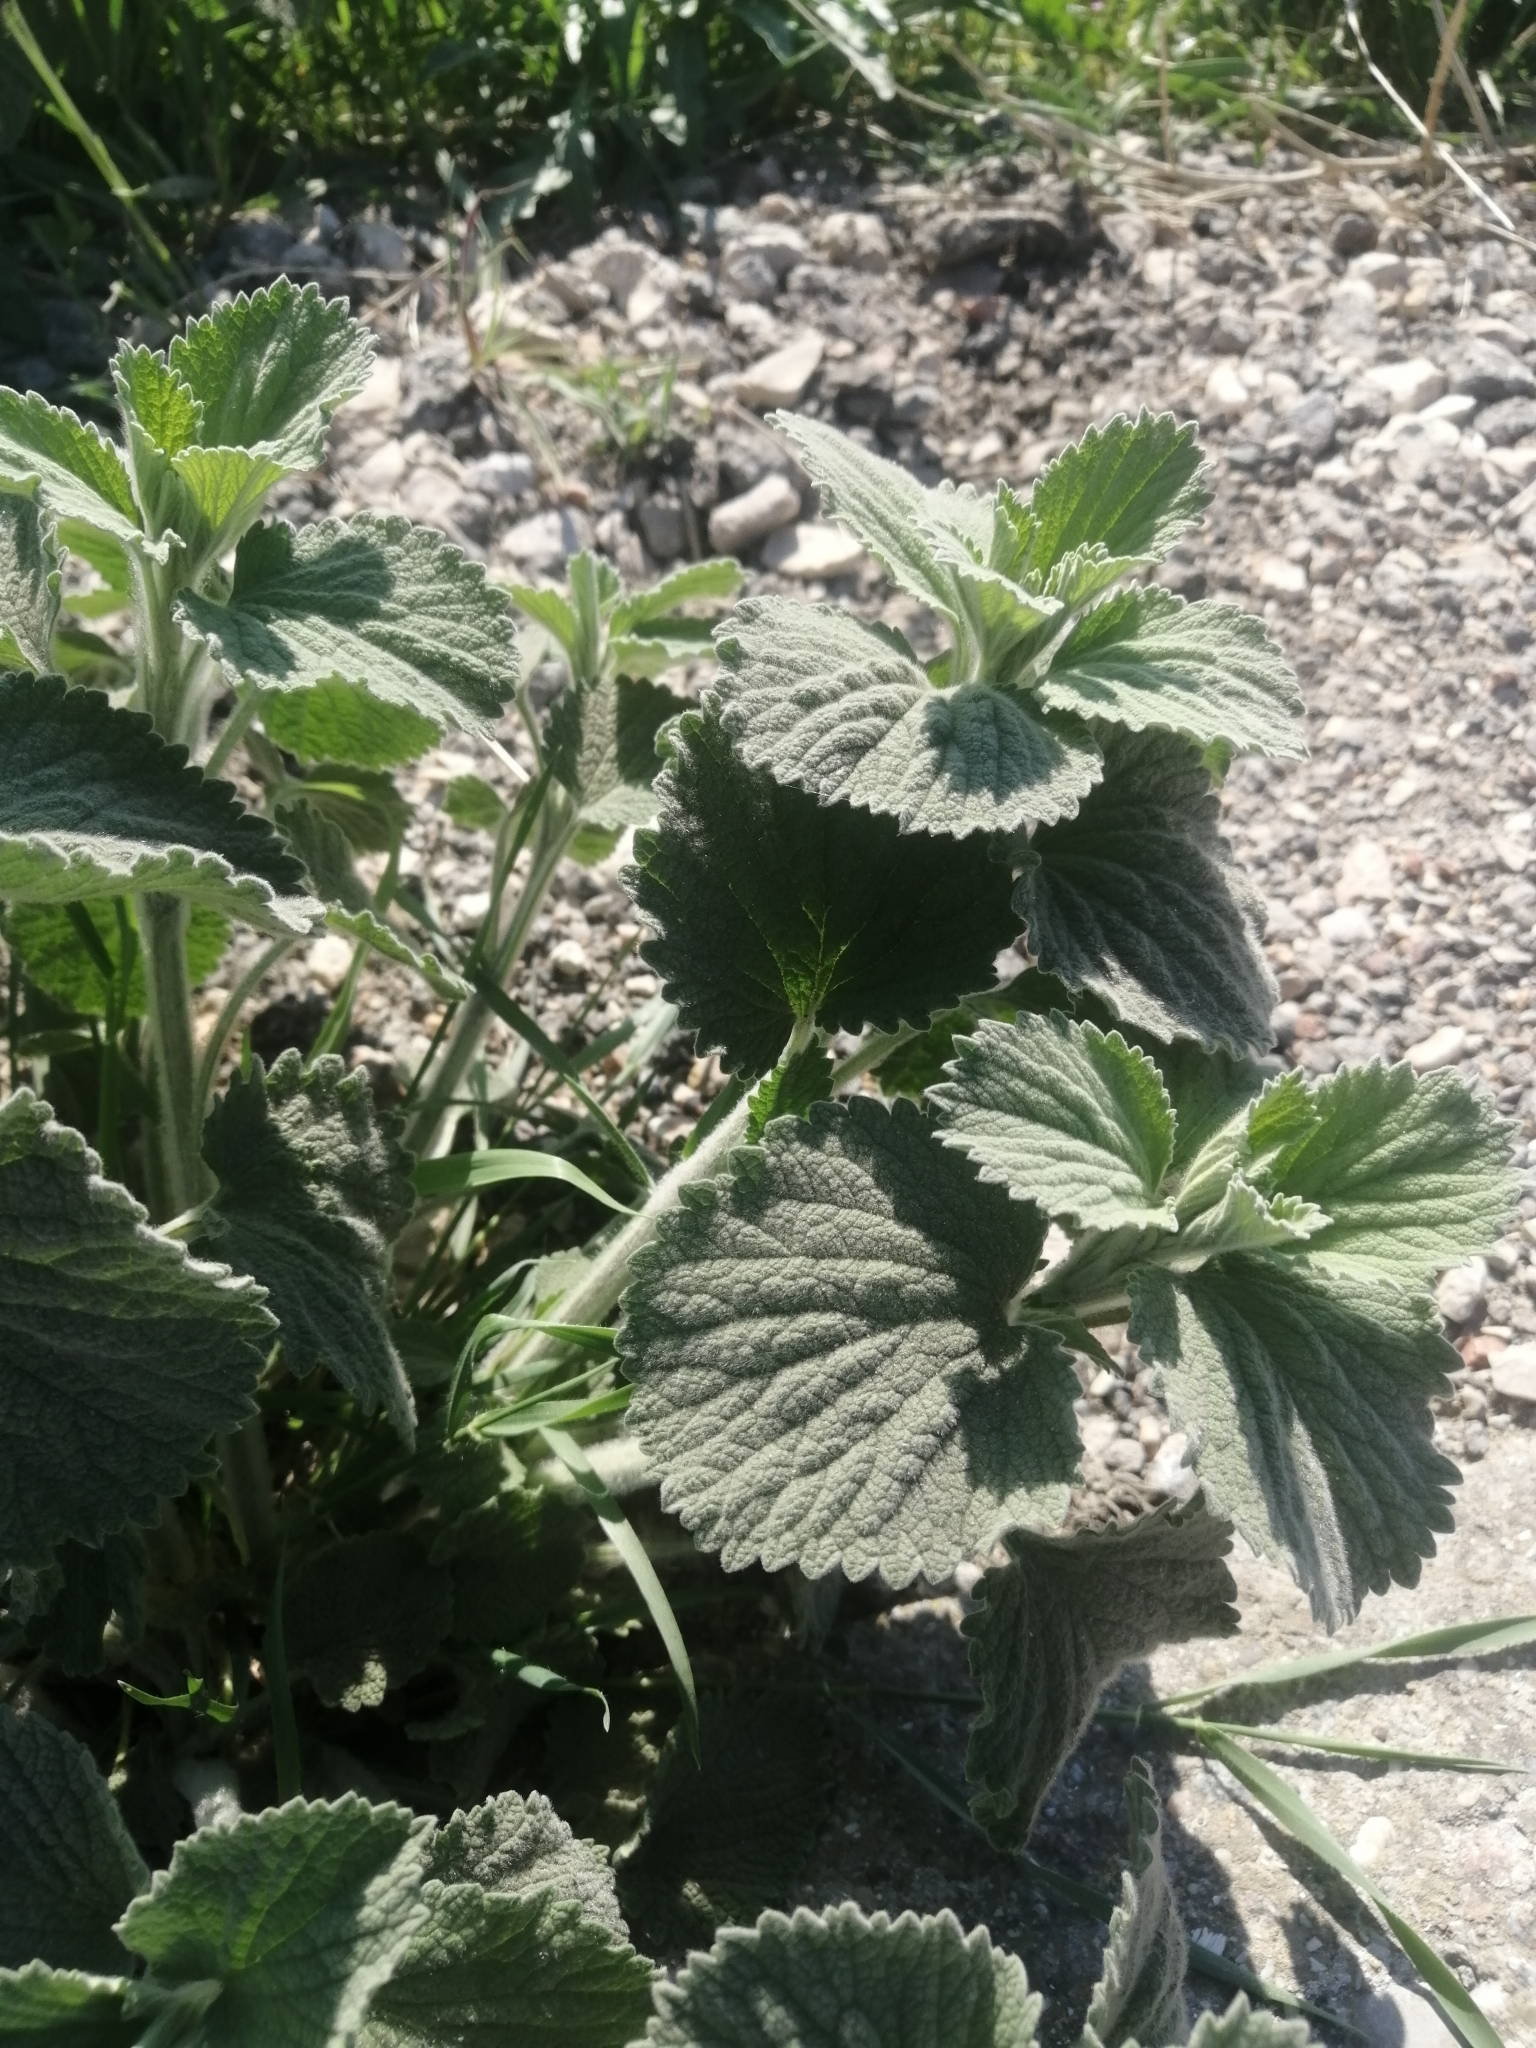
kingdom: Plantae
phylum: Tracheophyta
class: Magnoliopsida
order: Lamiales
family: Lamiaceae
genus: Marrubium
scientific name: Marrubium peregrinum
